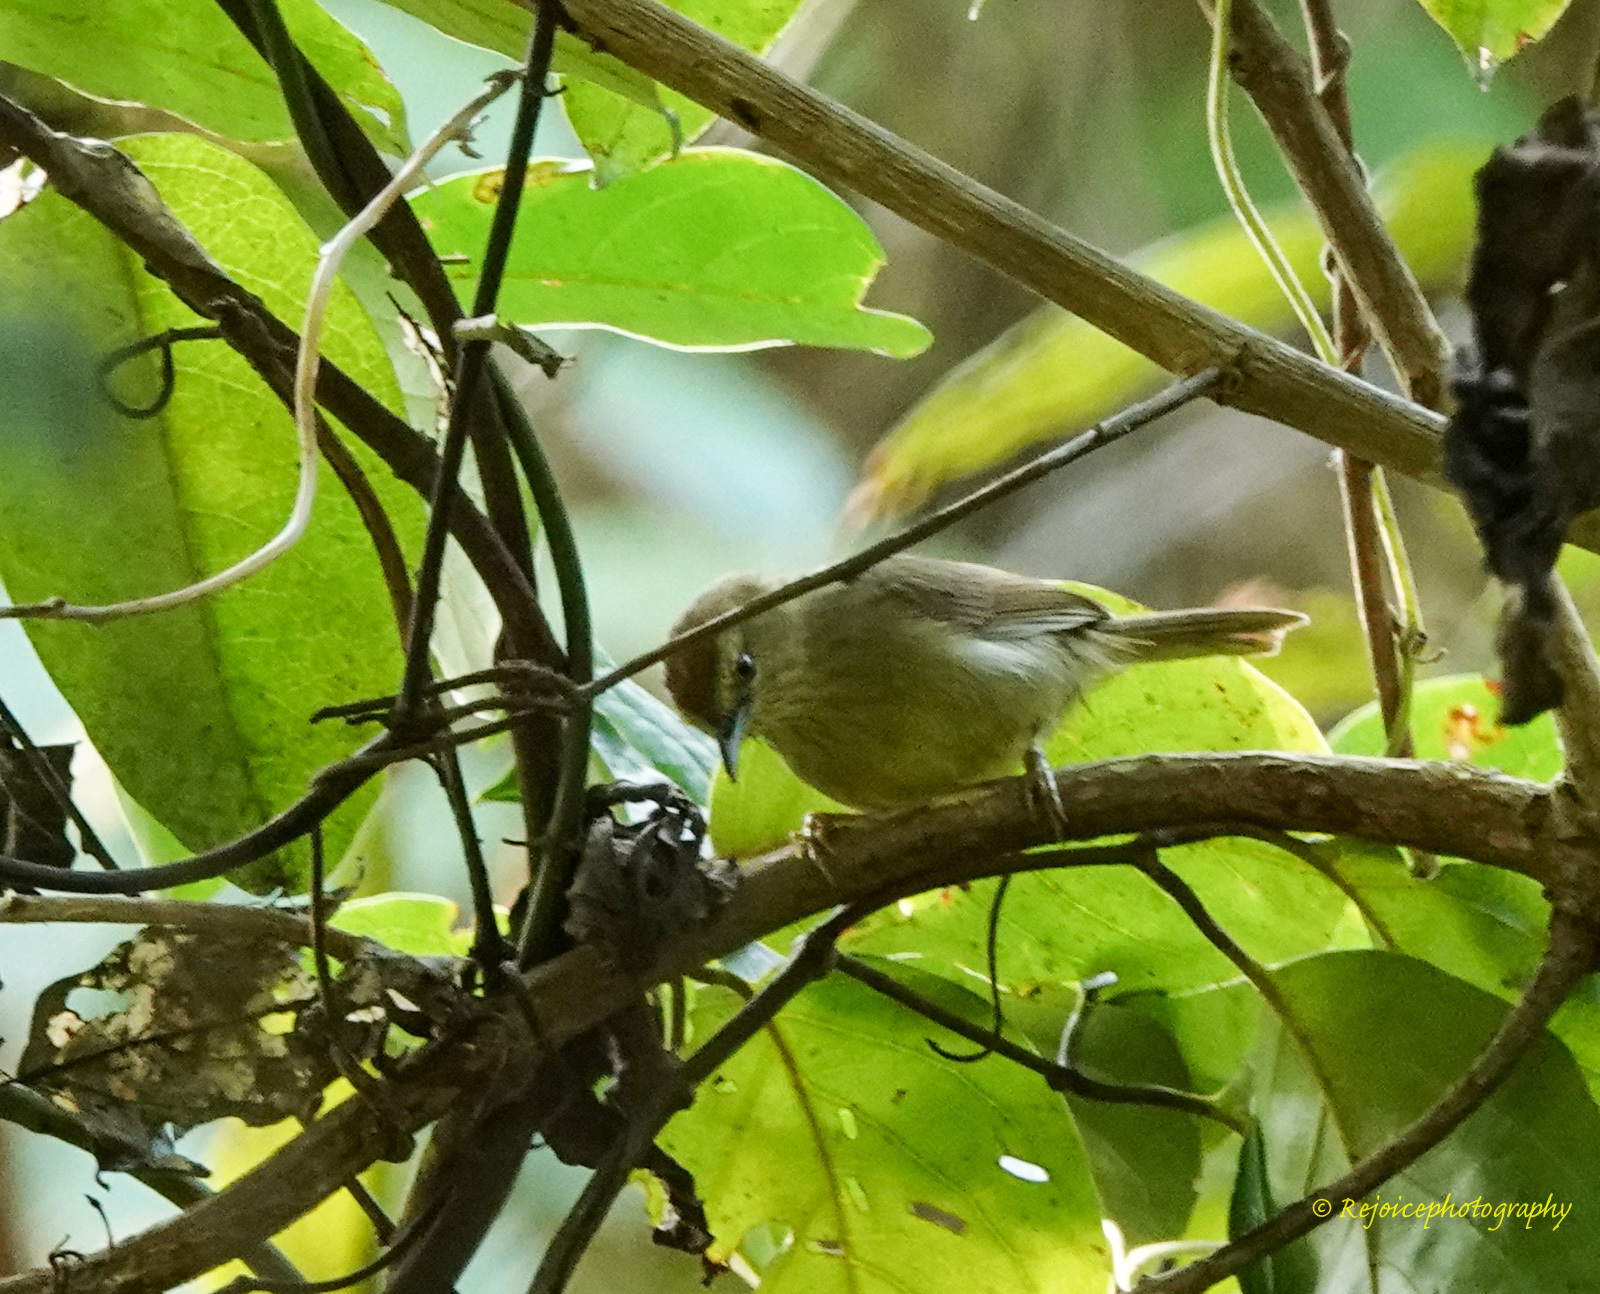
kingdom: Animalia
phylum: Chordata
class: Aves
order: Passeriformes
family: Timaliidae
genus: Macronus
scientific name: Macronus gularis
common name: Striped tit-babbler
